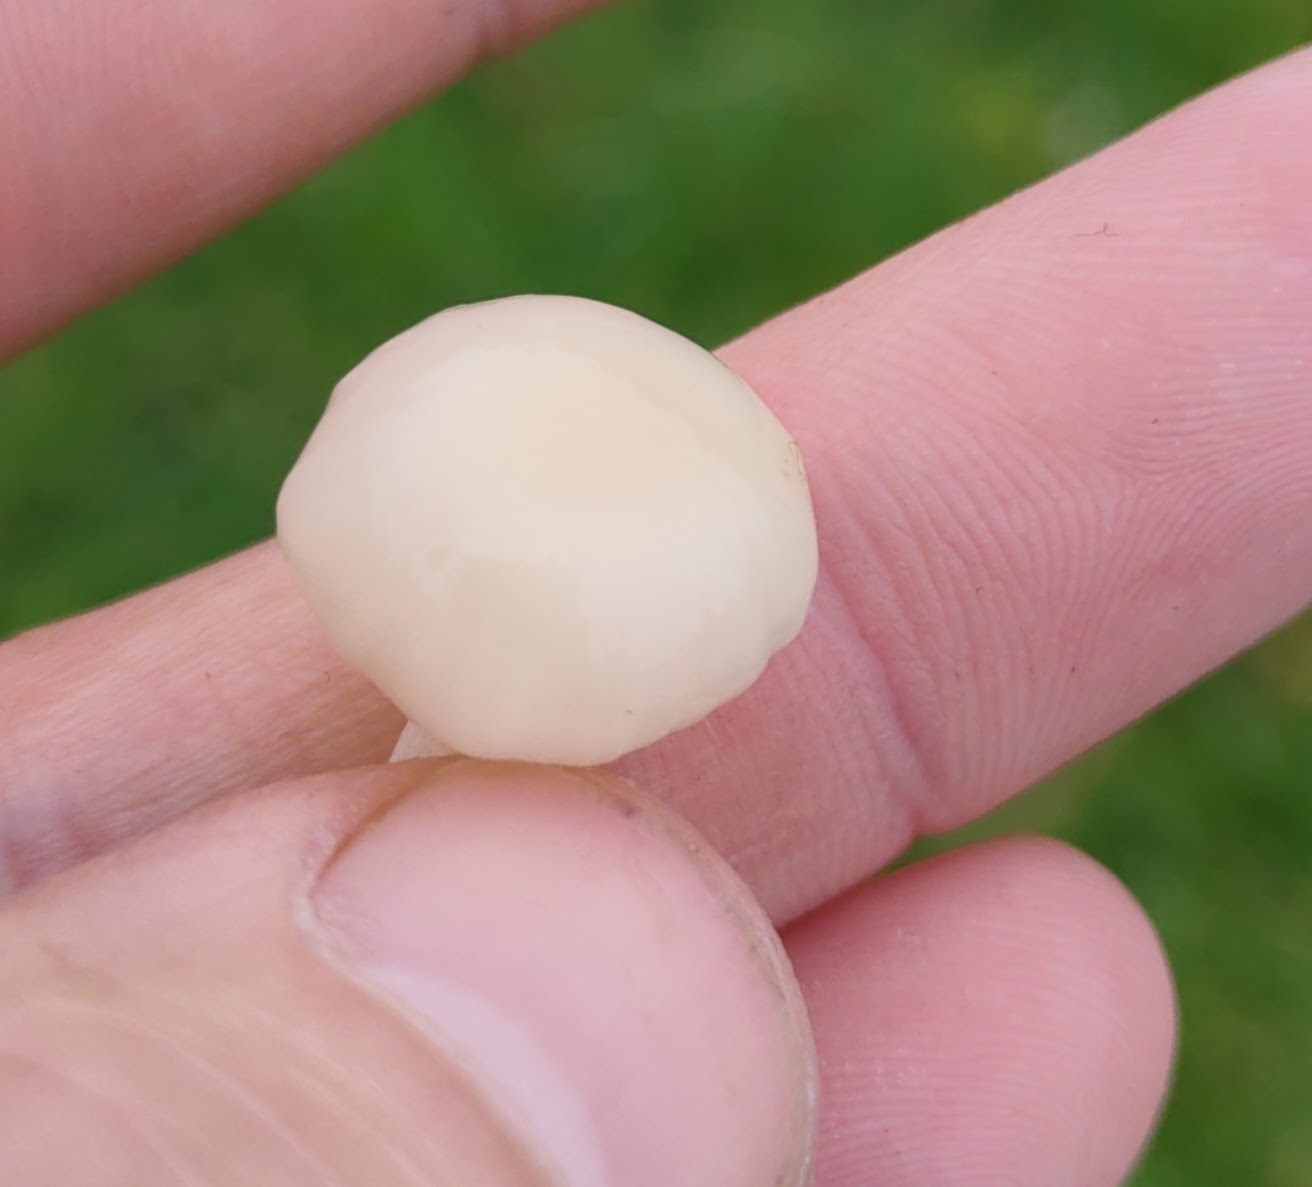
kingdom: Fungi
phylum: Basidiomycota
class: Agaricomycetes
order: Agaricales
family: Hygrophoraceae
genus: Cuphophyllus
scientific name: Cuphophyllus virgineus
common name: Snowy waxcap
